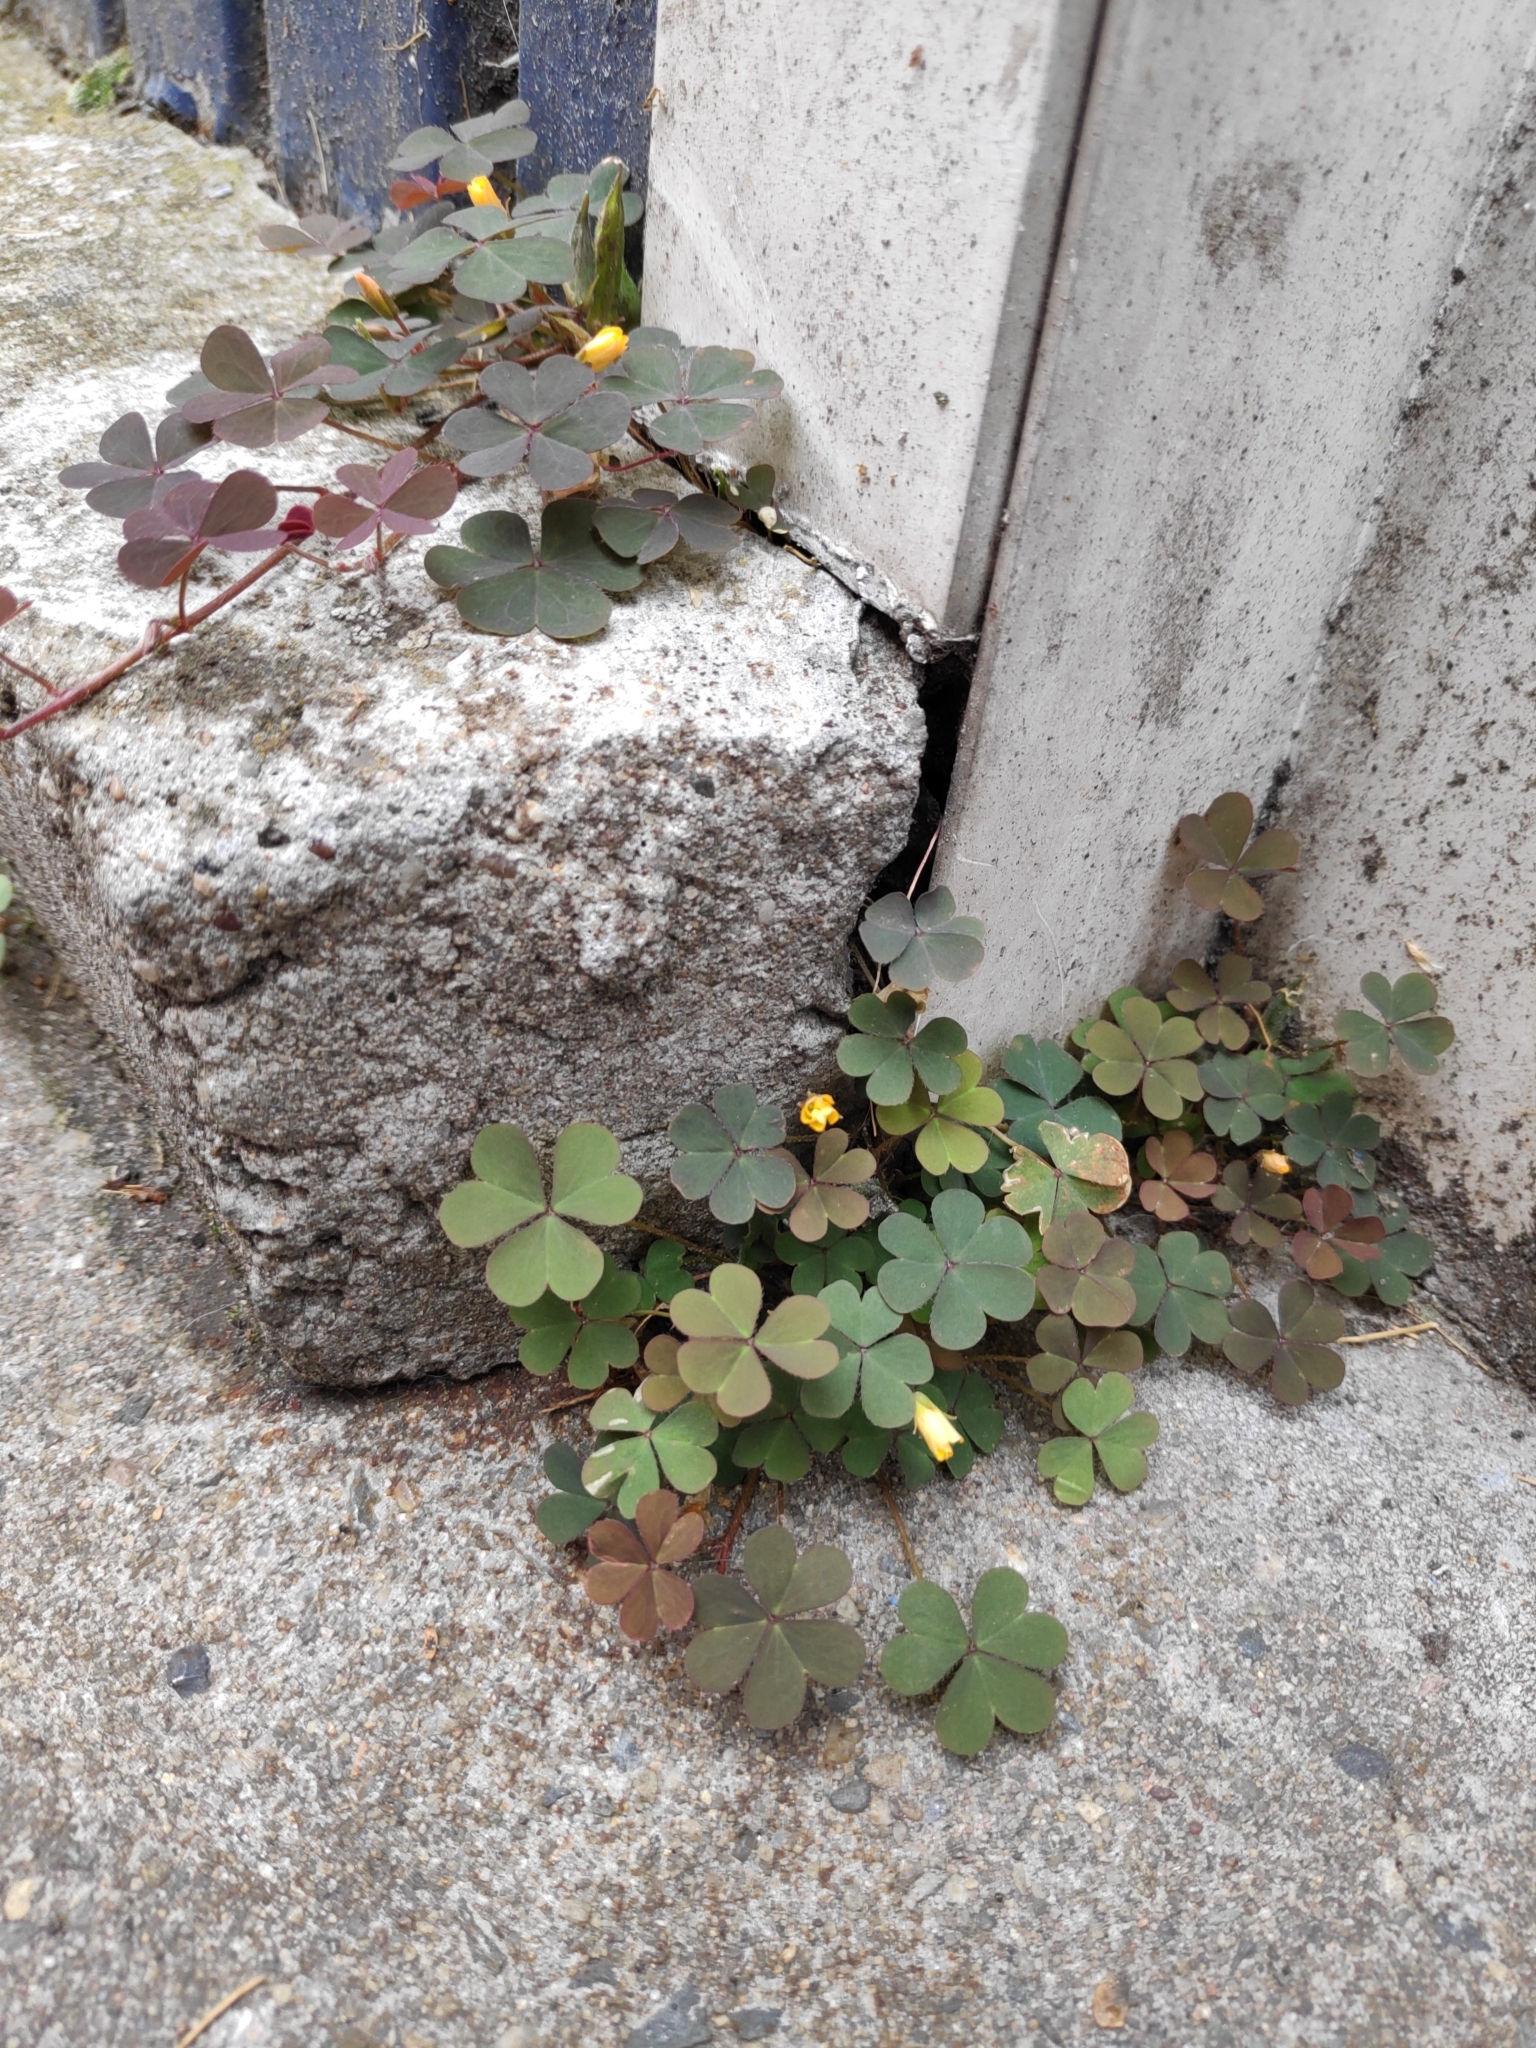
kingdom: Plantae
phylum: Tracheophyta
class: Magnoliopsida
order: Oxalidales
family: Oxalidaceae
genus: Oxalis
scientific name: Oxalis corniculata
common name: Procumbent yellow-sorrel
